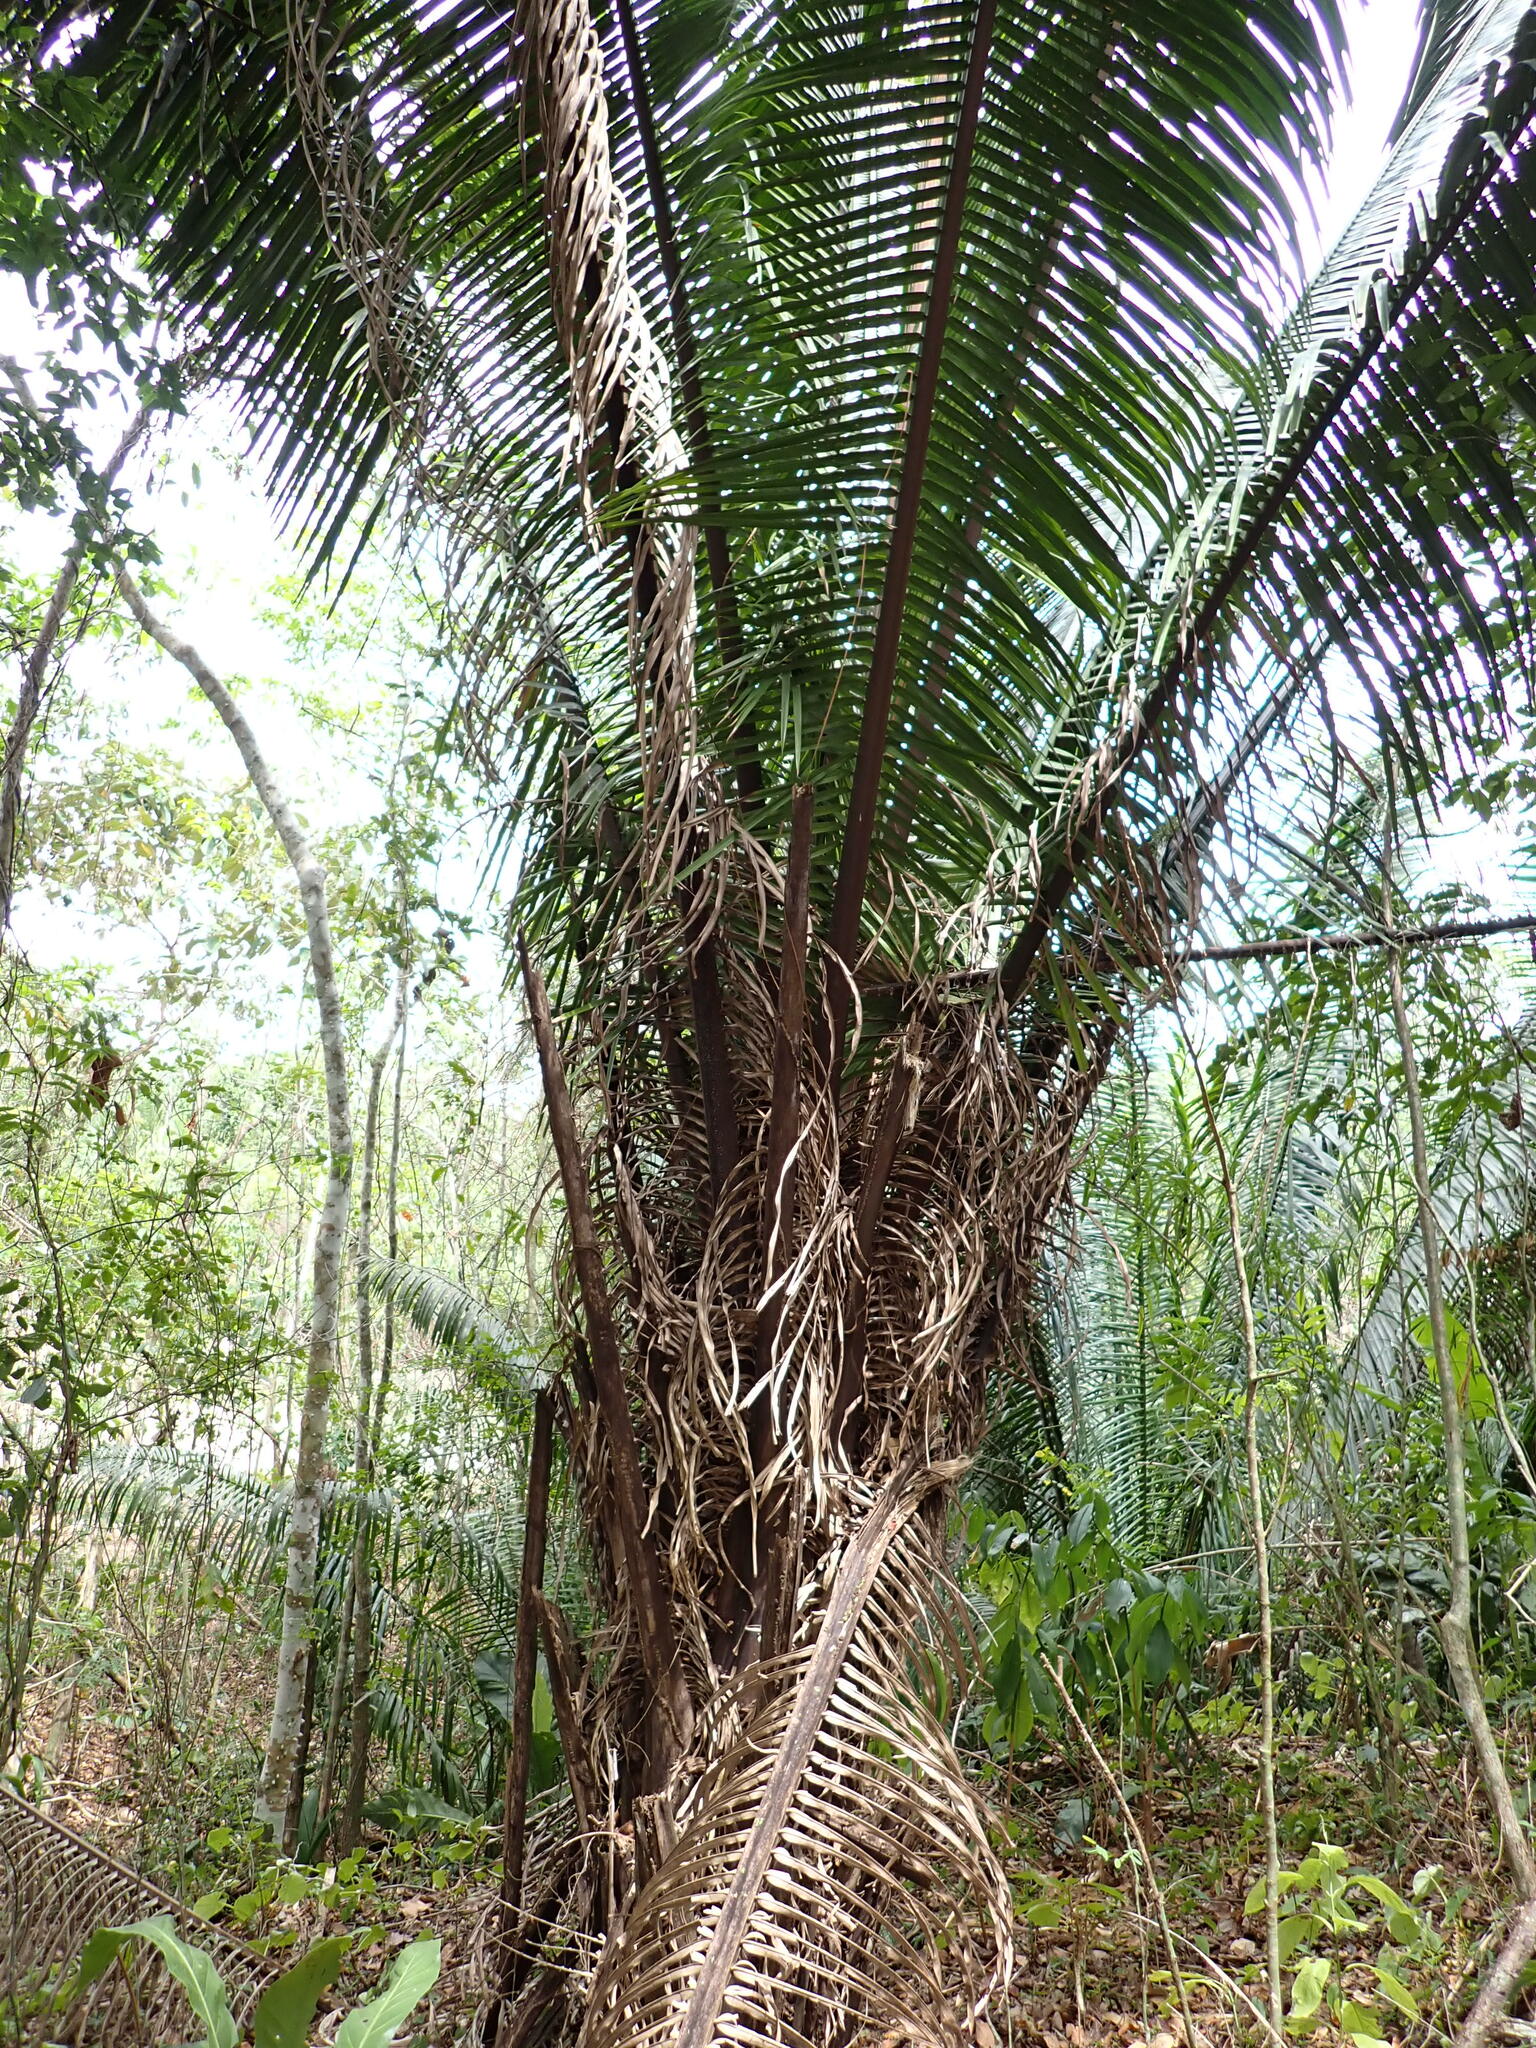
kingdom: Plantae
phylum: Tracheophyta
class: Liliopsida
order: Arecales
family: Arecaceae
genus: Attalea
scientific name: Attalea cohune
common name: Cohune palm
